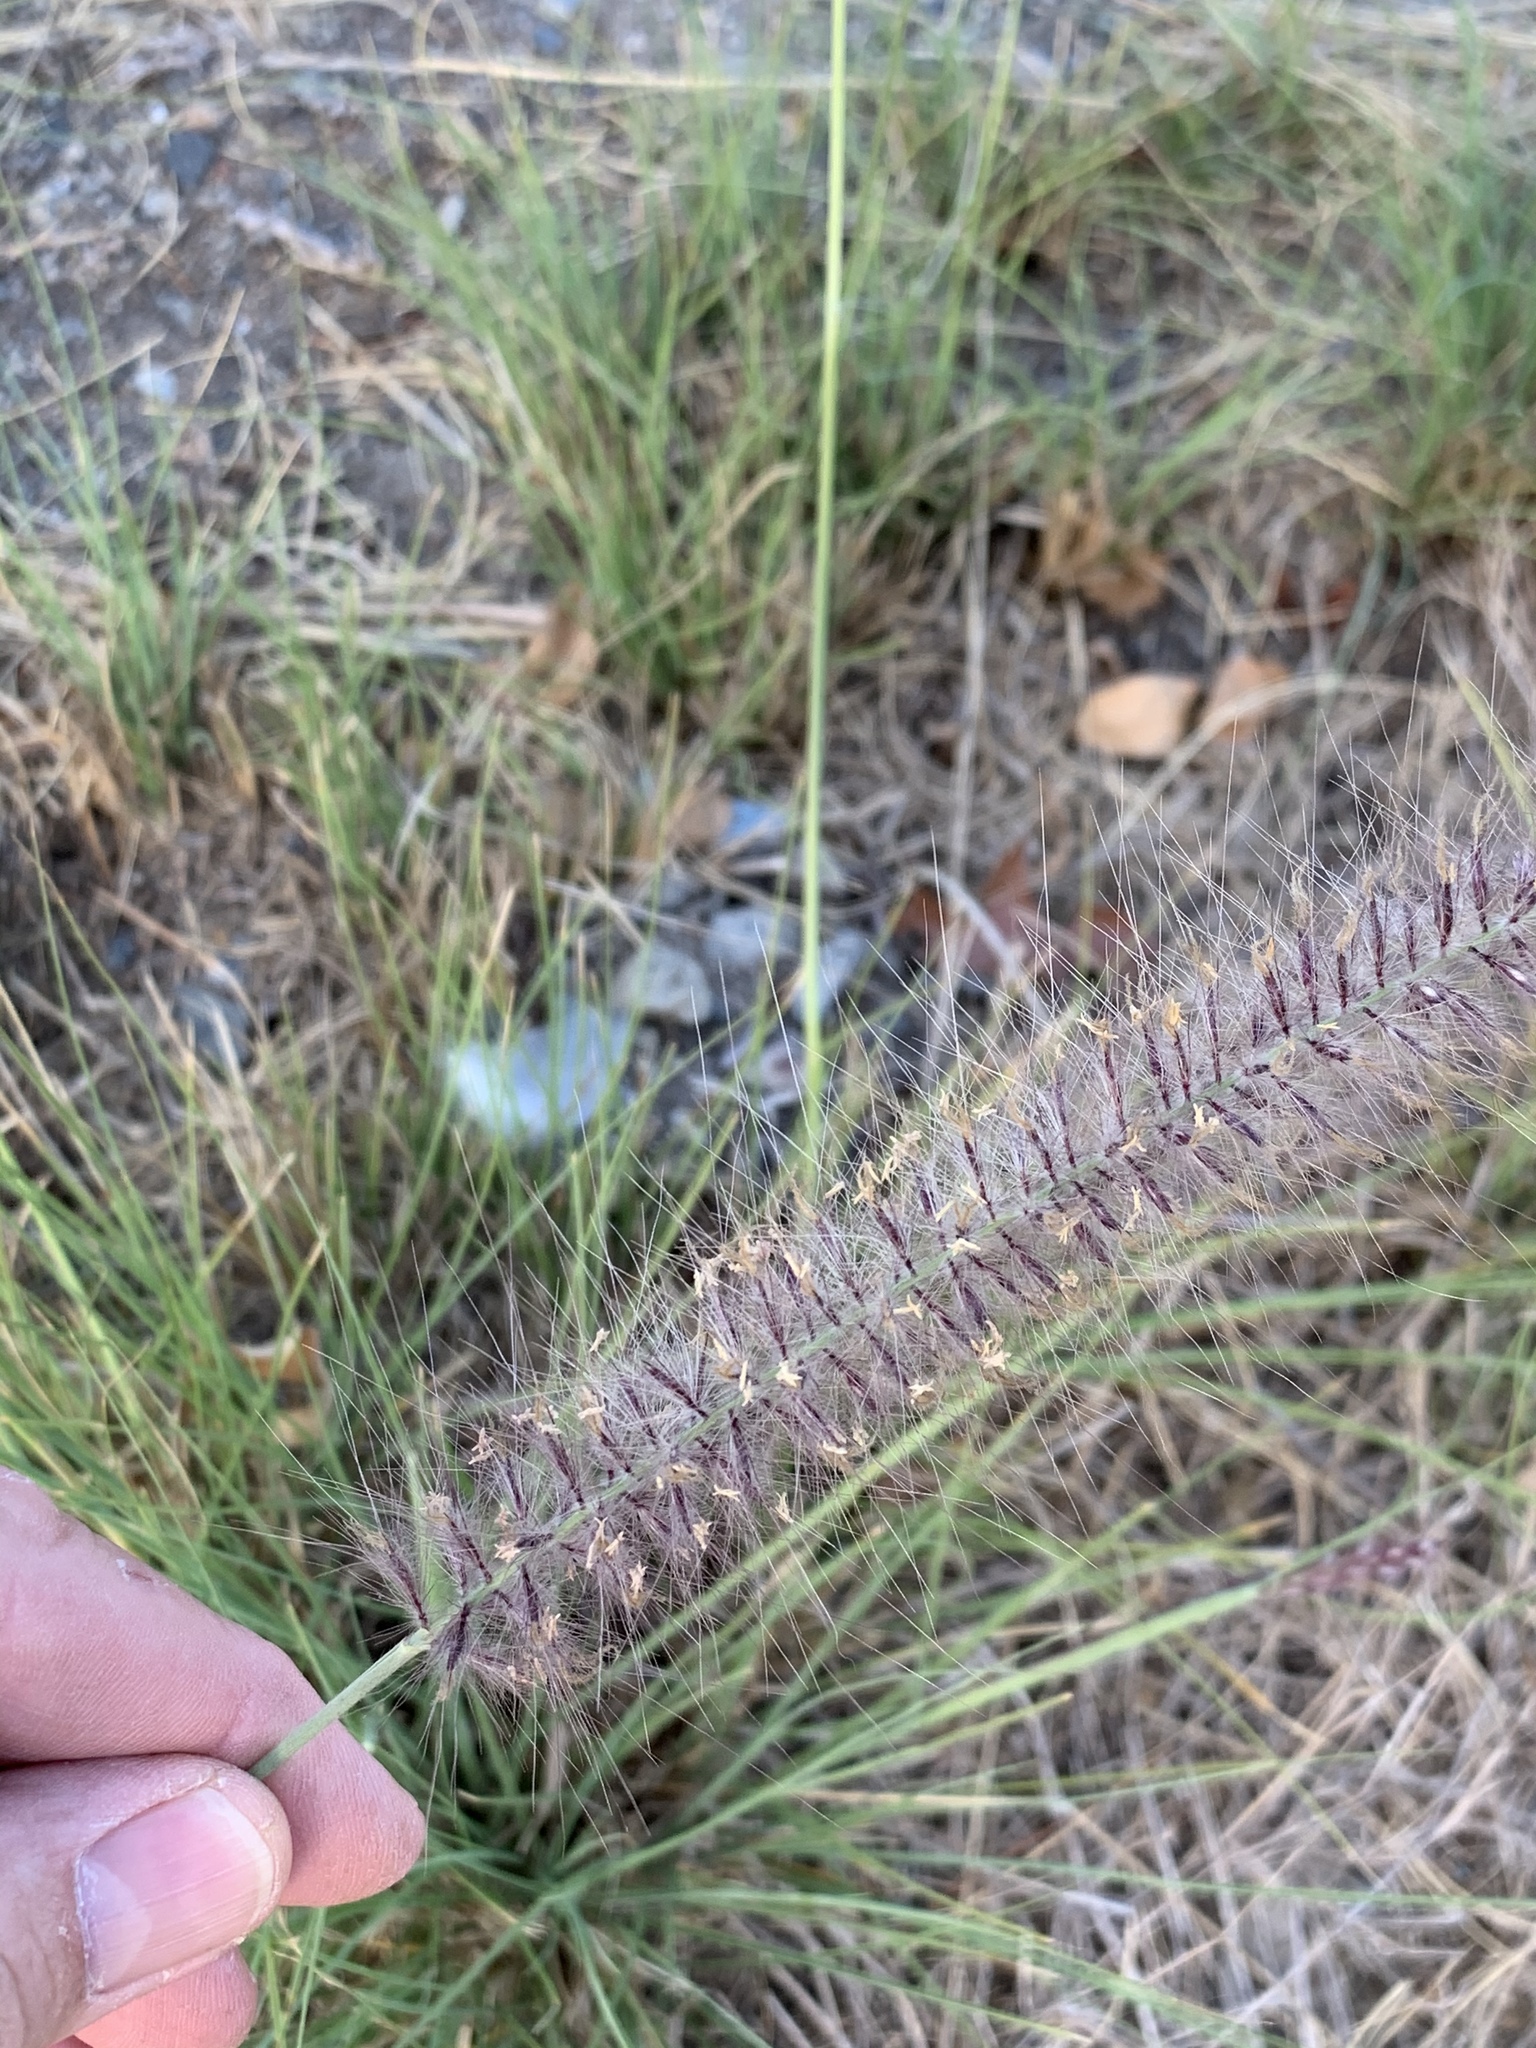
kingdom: Plantae
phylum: Tracheophyta
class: Liliopsida
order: Poales
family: Poaceae
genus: Cenchrus
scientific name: Cenchrus setaceus
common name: Crimson fountaingrass
